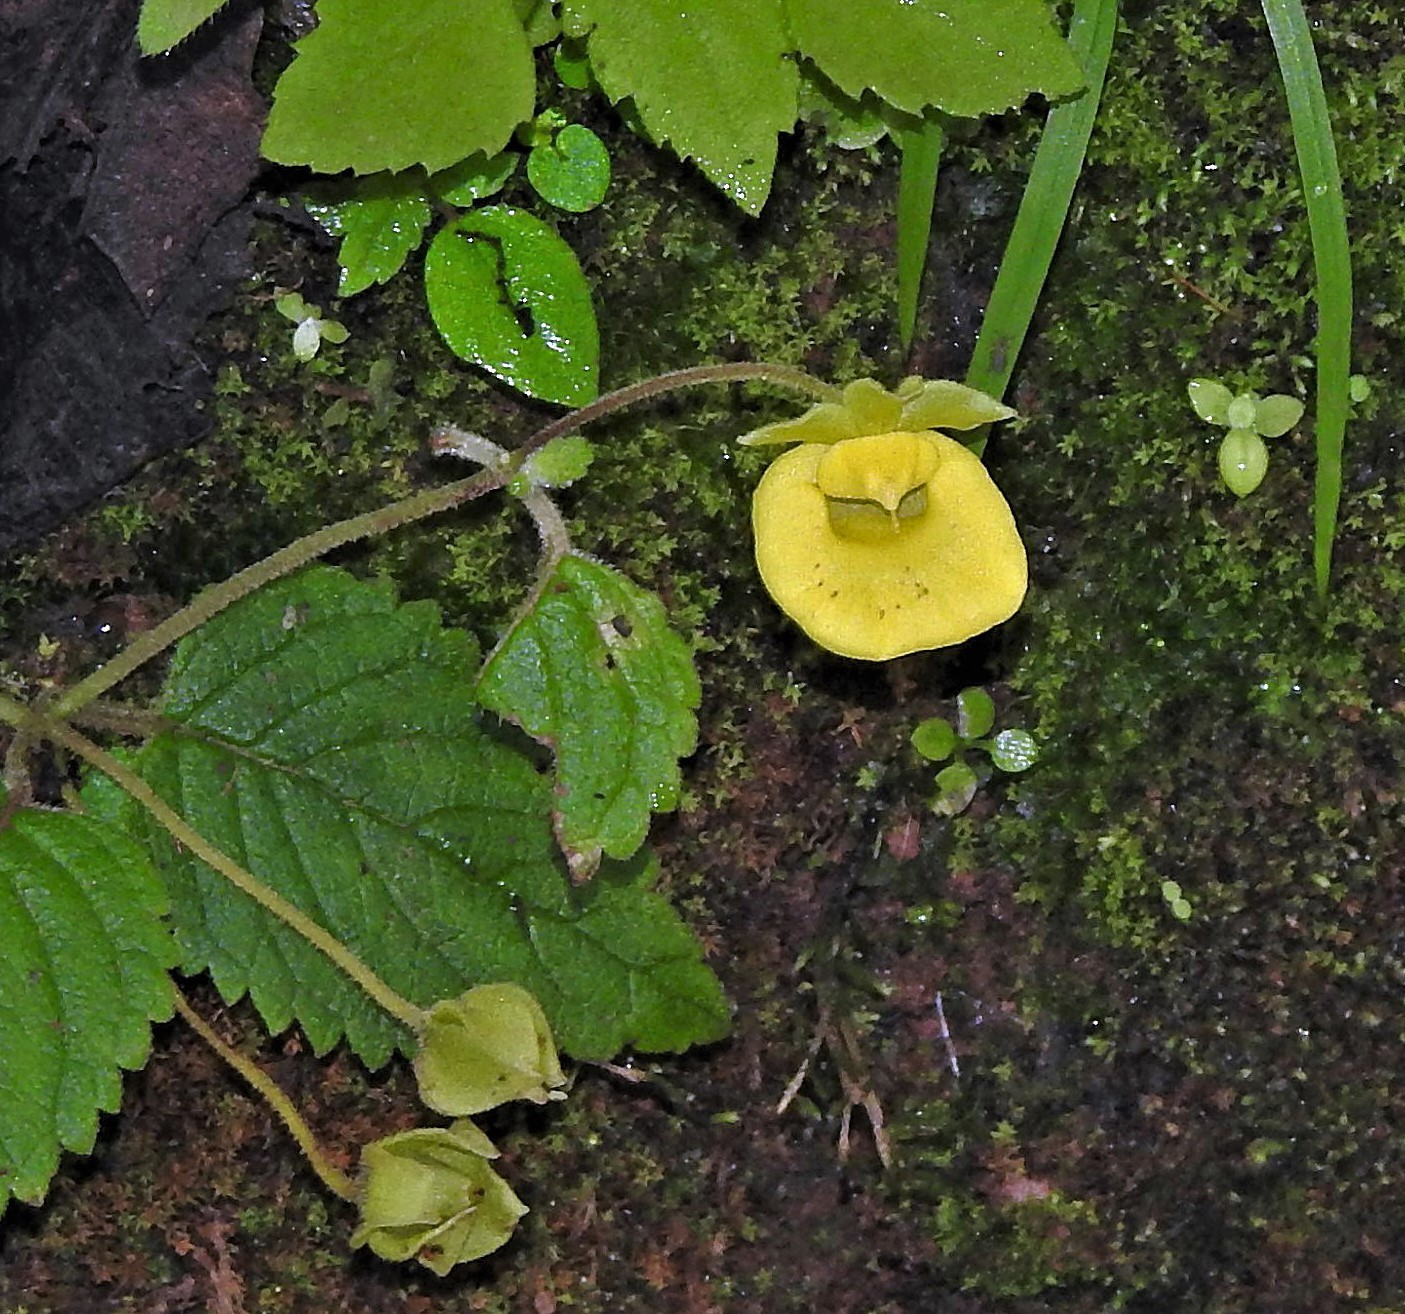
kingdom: Plantae
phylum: Tracheophyta
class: Magnoliopsida
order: Lamiales
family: Calceolariaceae
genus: Calceolaria
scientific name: Calceolaria jujuyensis
